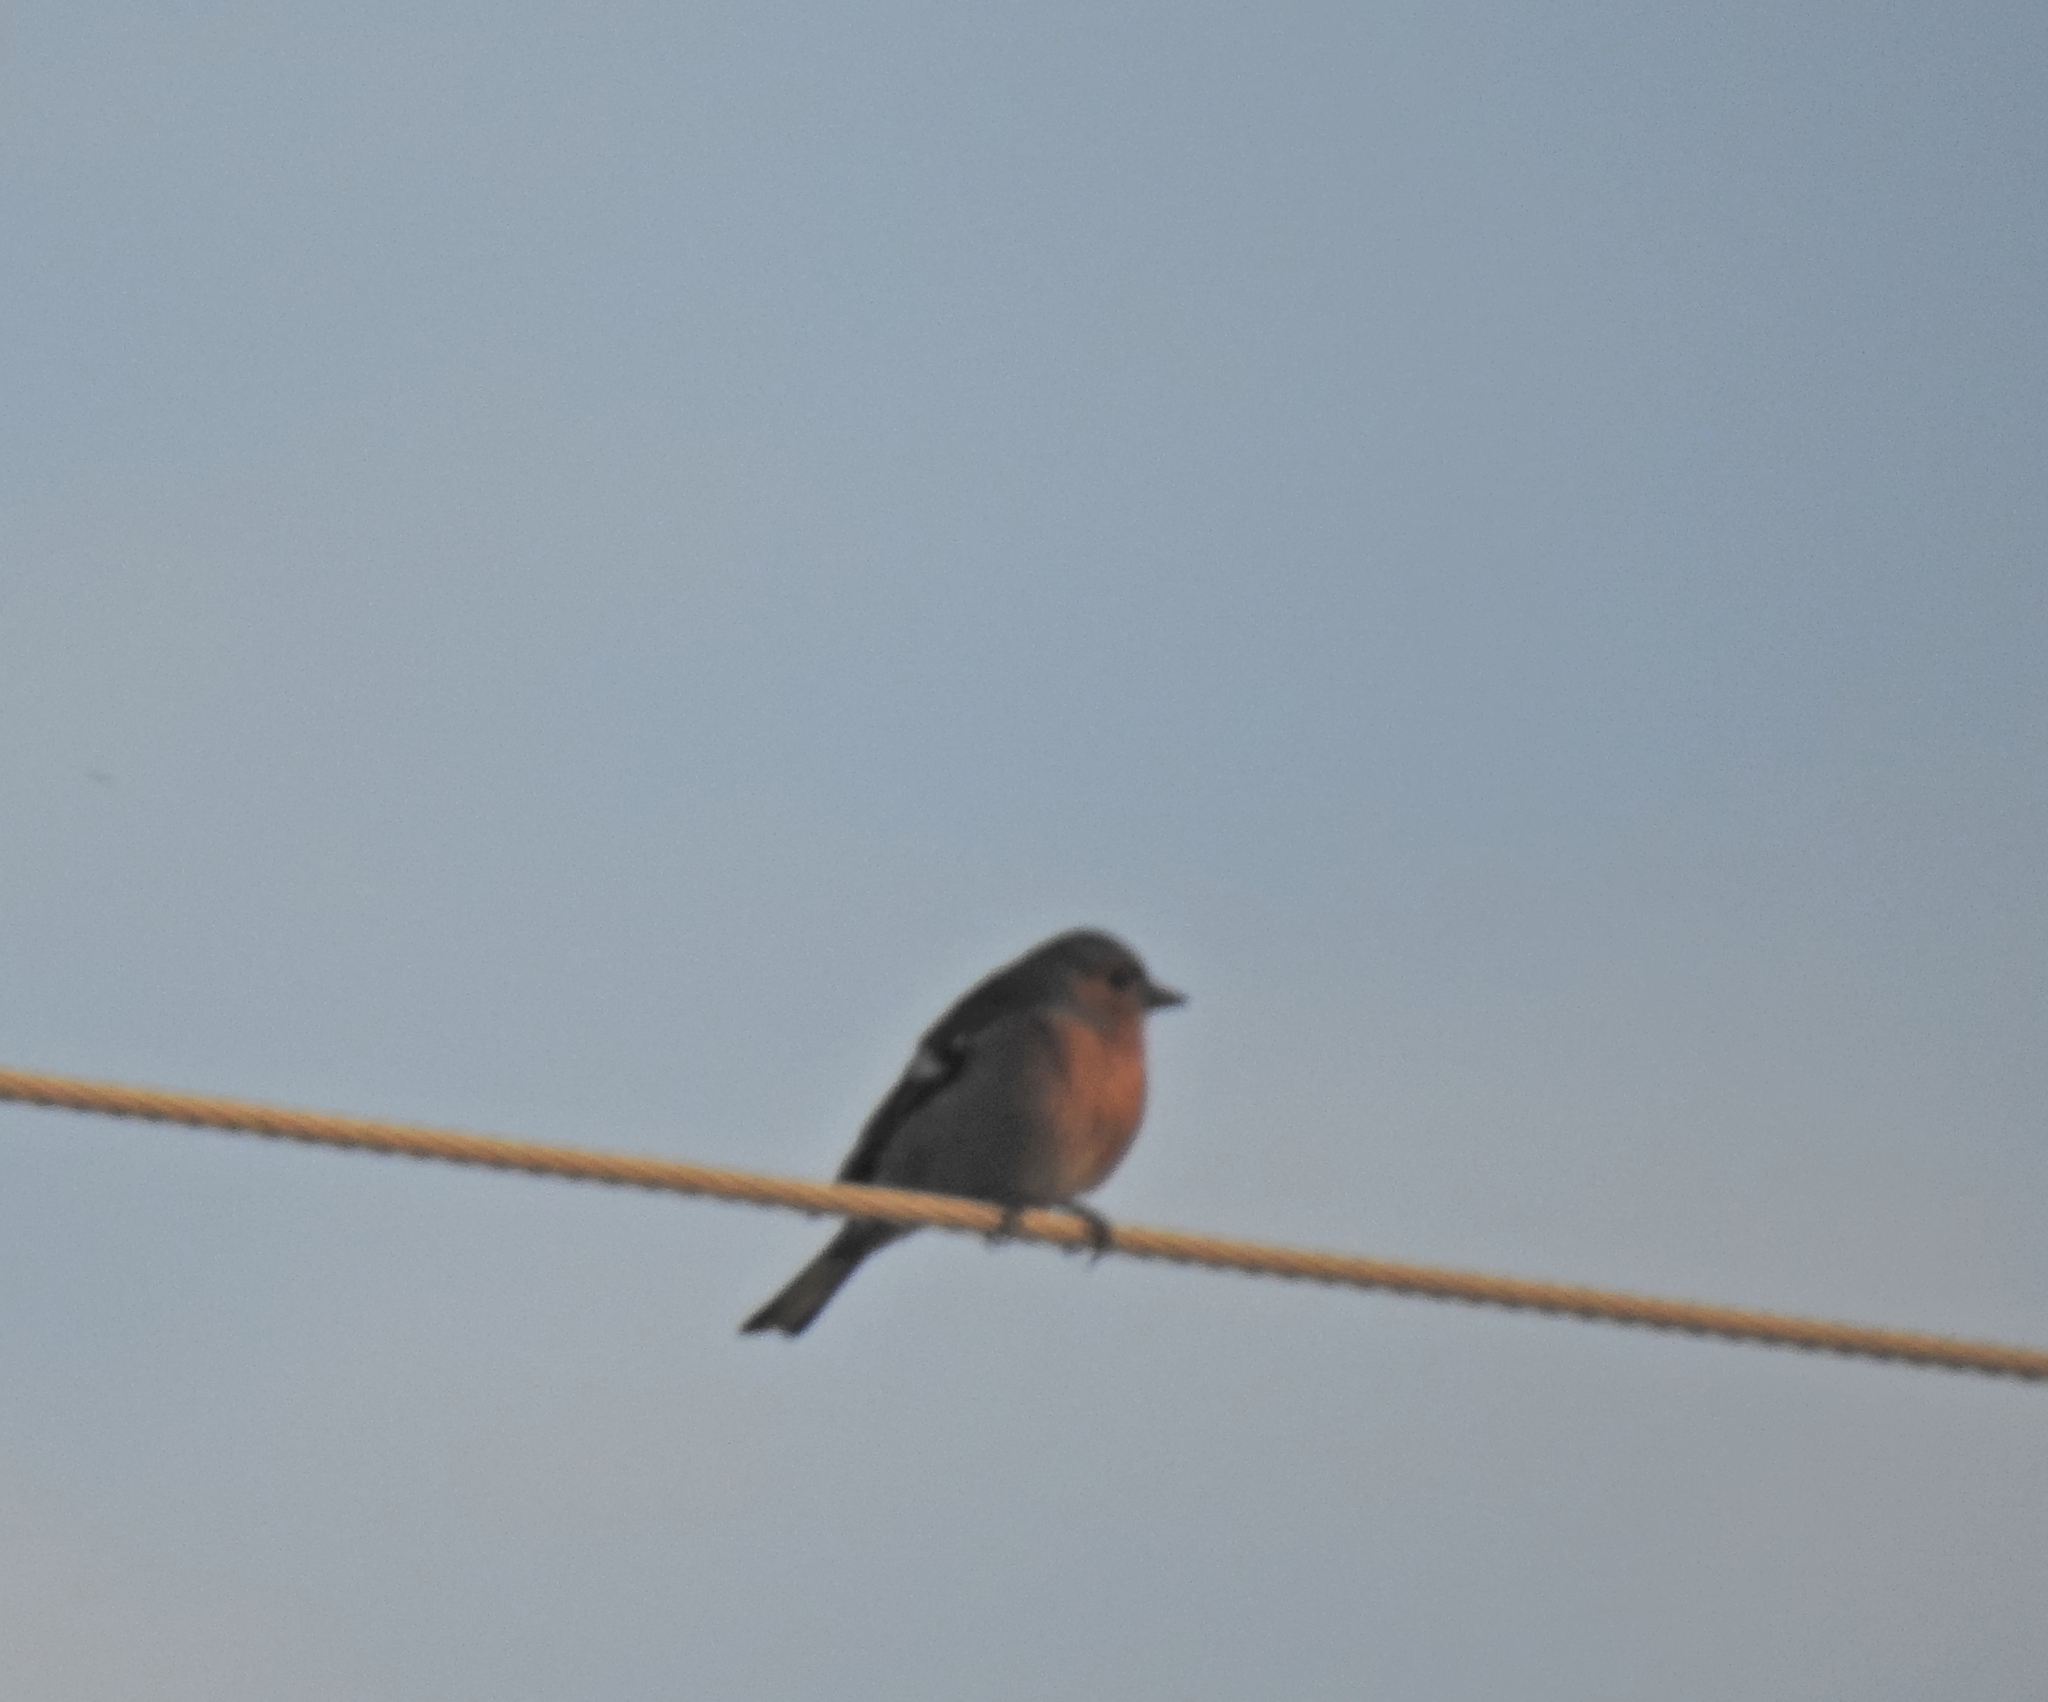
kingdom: Animalia
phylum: Chordata
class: Aves
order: Passeriformes
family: Fringillidae
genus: Fringilla
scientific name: Fringilla coelebs
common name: Common chaffinch
